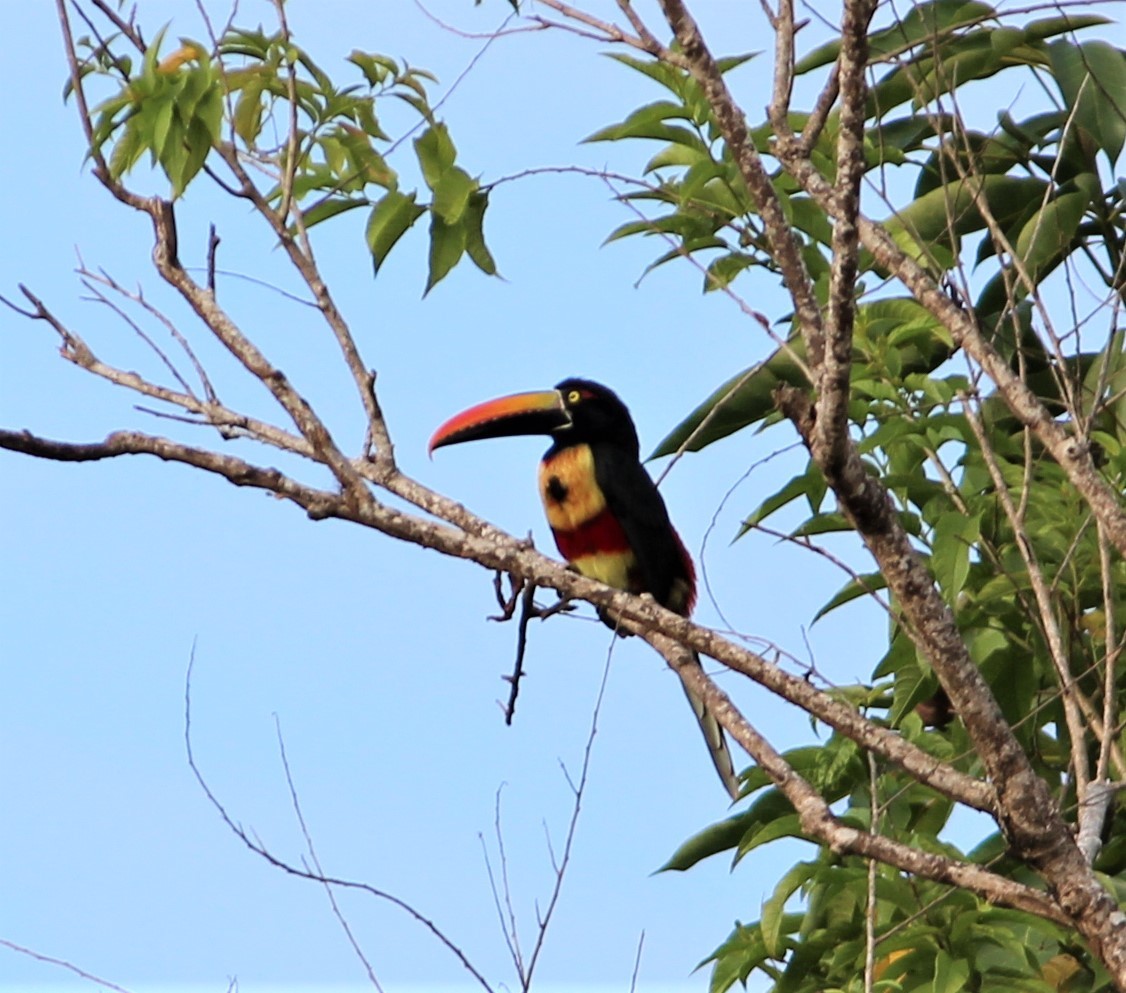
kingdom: Animalia
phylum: Chordata
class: Aves
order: Piciformes
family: Ramphastidae
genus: Pteroglossus
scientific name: Pteroglossus frantzii
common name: Fiery-billed aracari
